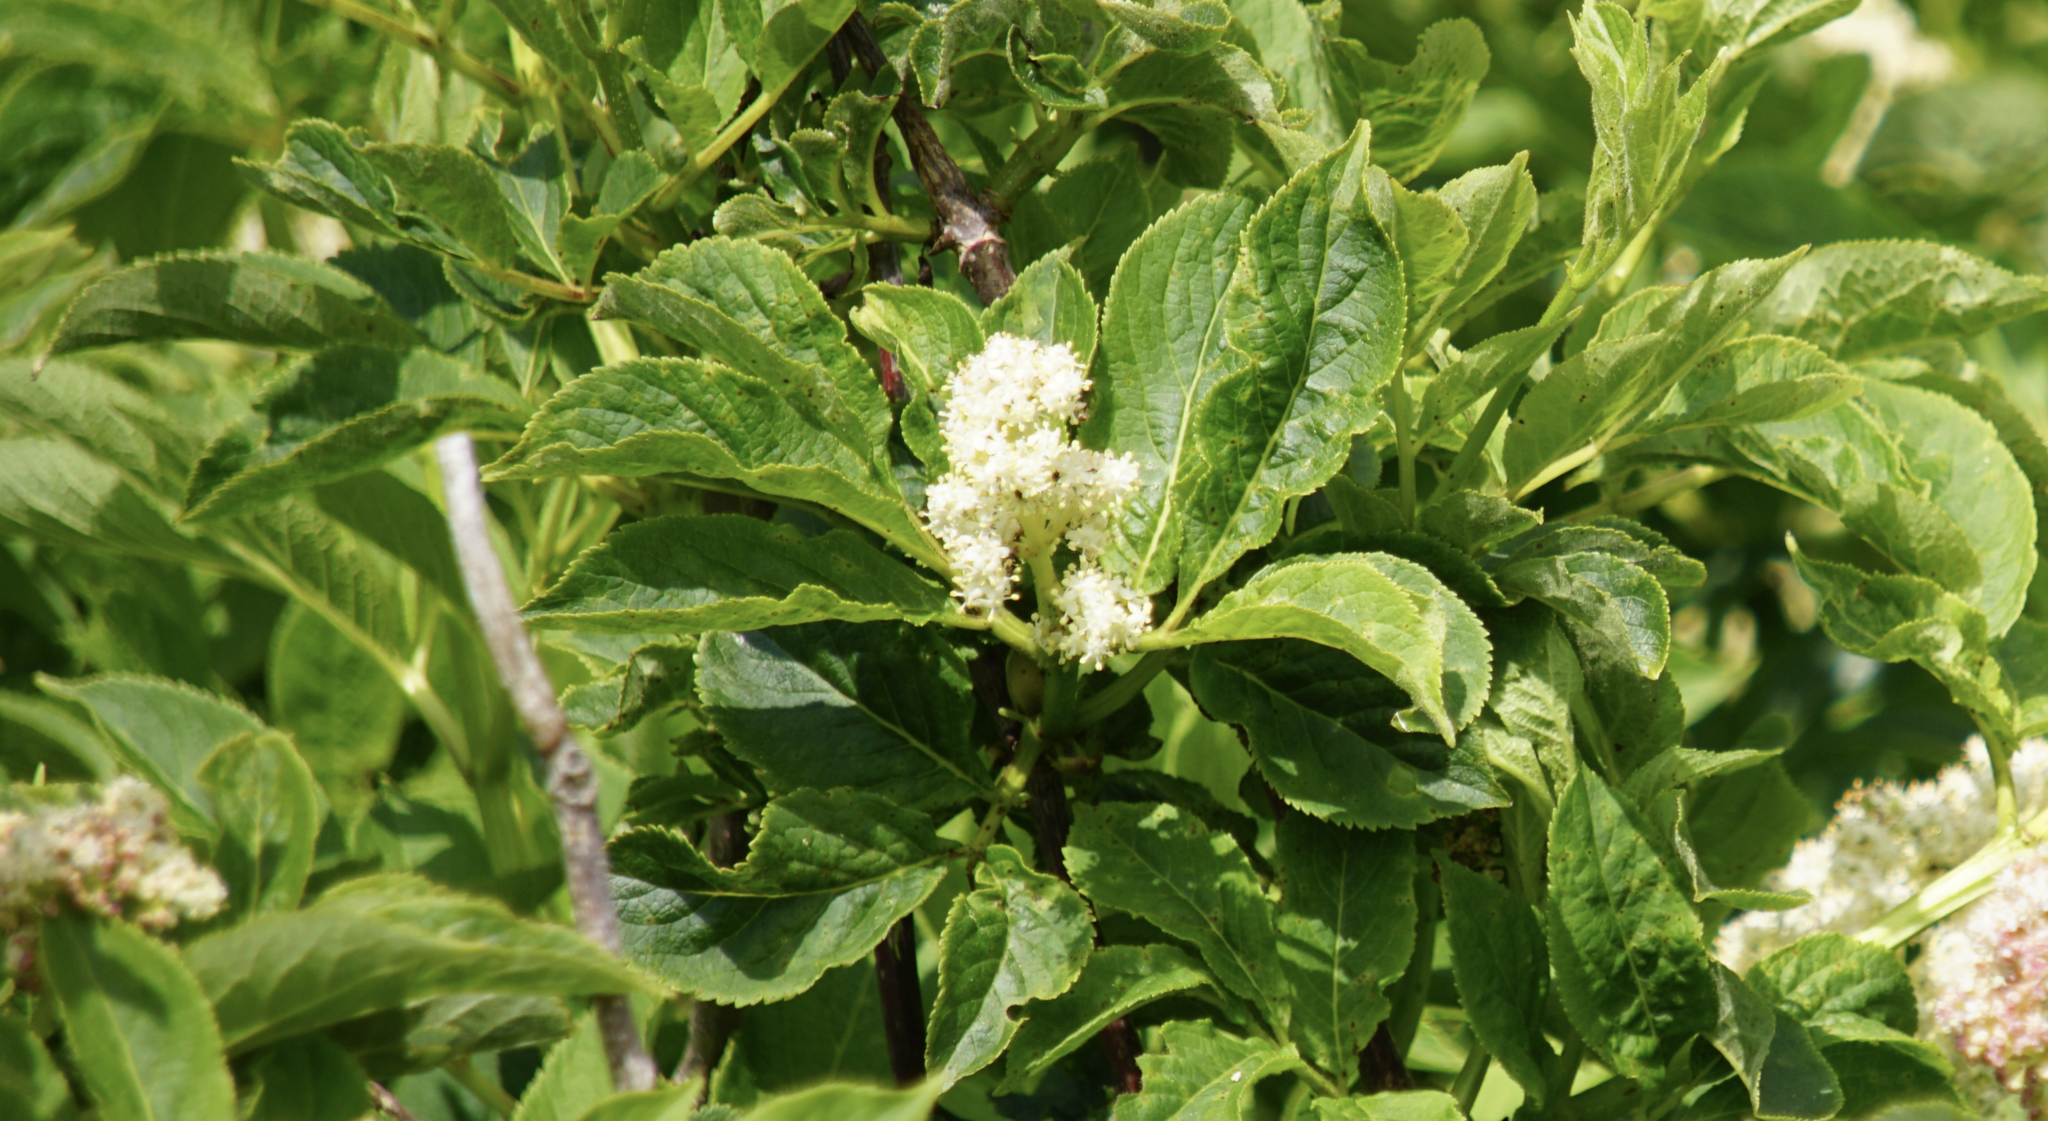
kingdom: Plantae
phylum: Tracheophyta
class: Magnoliopsida
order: Dipsacales
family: Viburnaceae
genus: Sambucus
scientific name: Sambucus racemosa
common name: Red-berried elder
